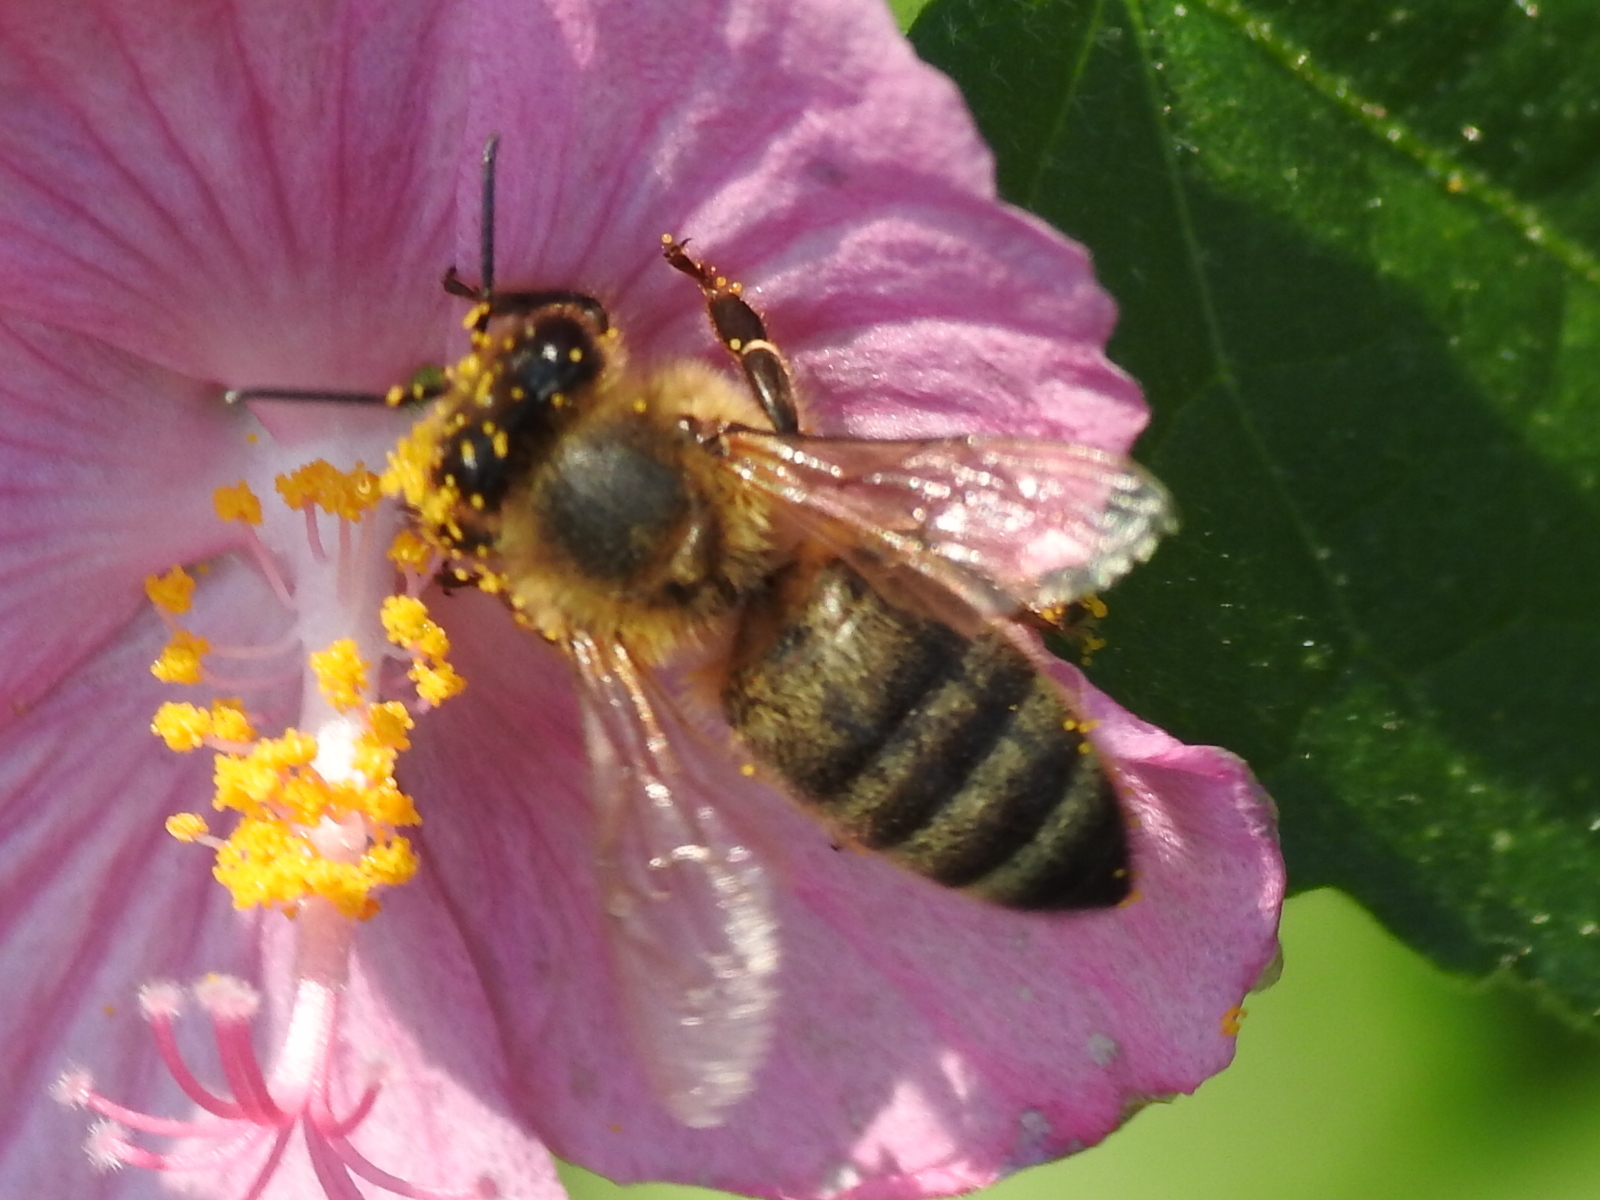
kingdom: Animalia
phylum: Arthropoda
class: Insecta
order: Hymenoptera
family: Apidae
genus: Apis
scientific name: Apis mellifera
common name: Honey bee
